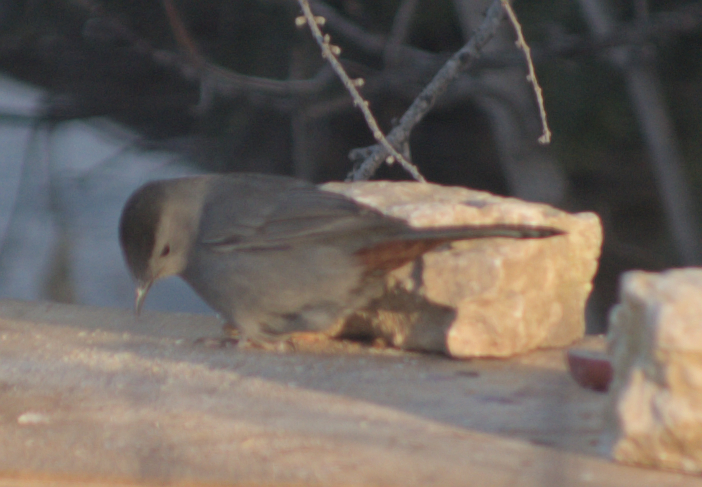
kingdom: Animalia
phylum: Chordata
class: Aves
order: Passeriformes
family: Mimidae
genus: Dumetella
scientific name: Dumetella carolinensis
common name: Gray catbird
